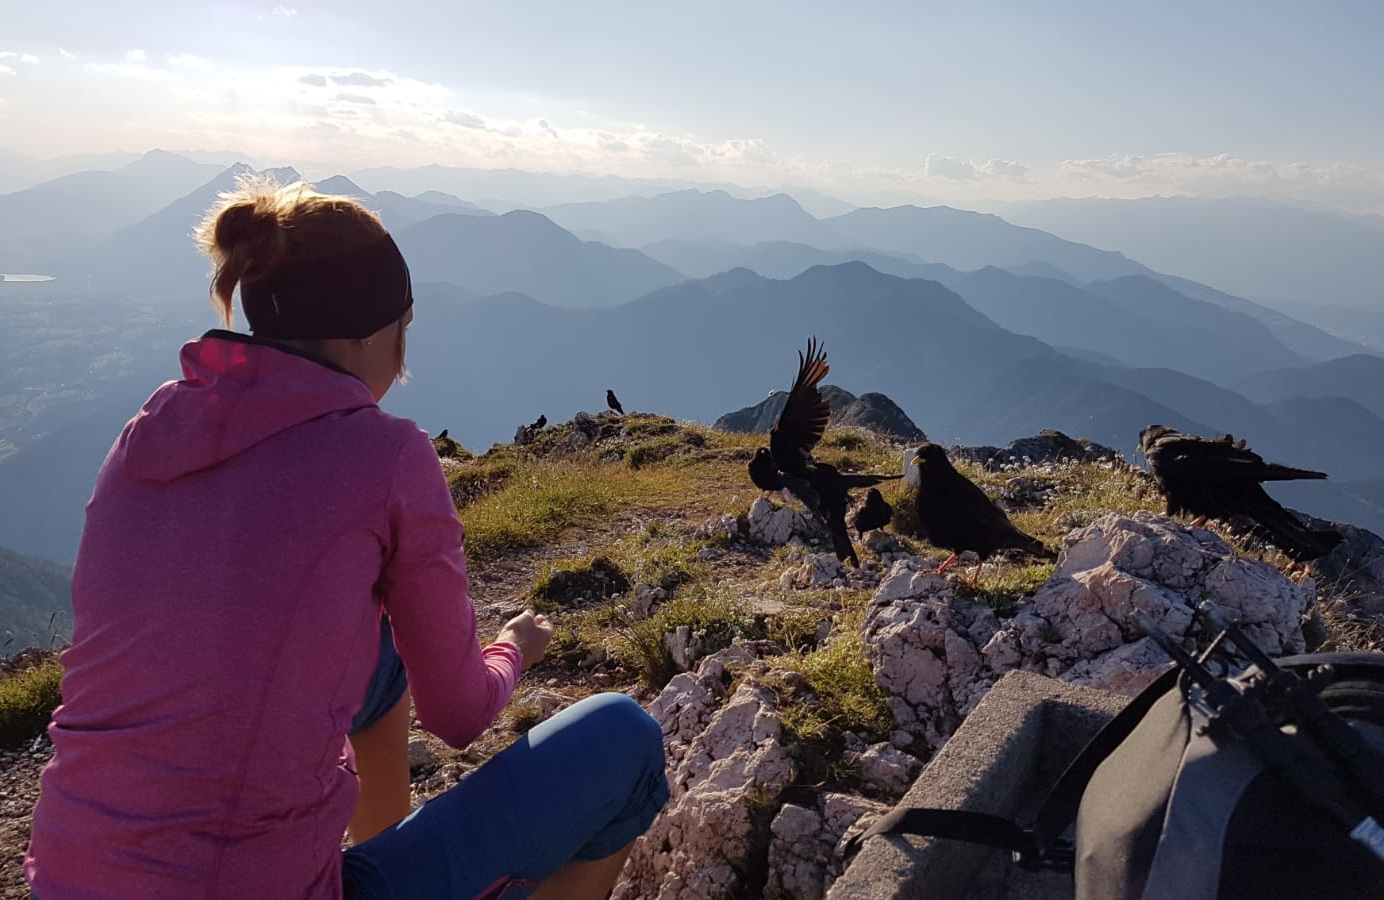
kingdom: Animalia
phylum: Chordata
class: Aves
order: Passeriformes
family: Corvidae
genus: Pyrrhocorax
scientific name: Pyrrhocorax graculus
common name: Alpine chough
